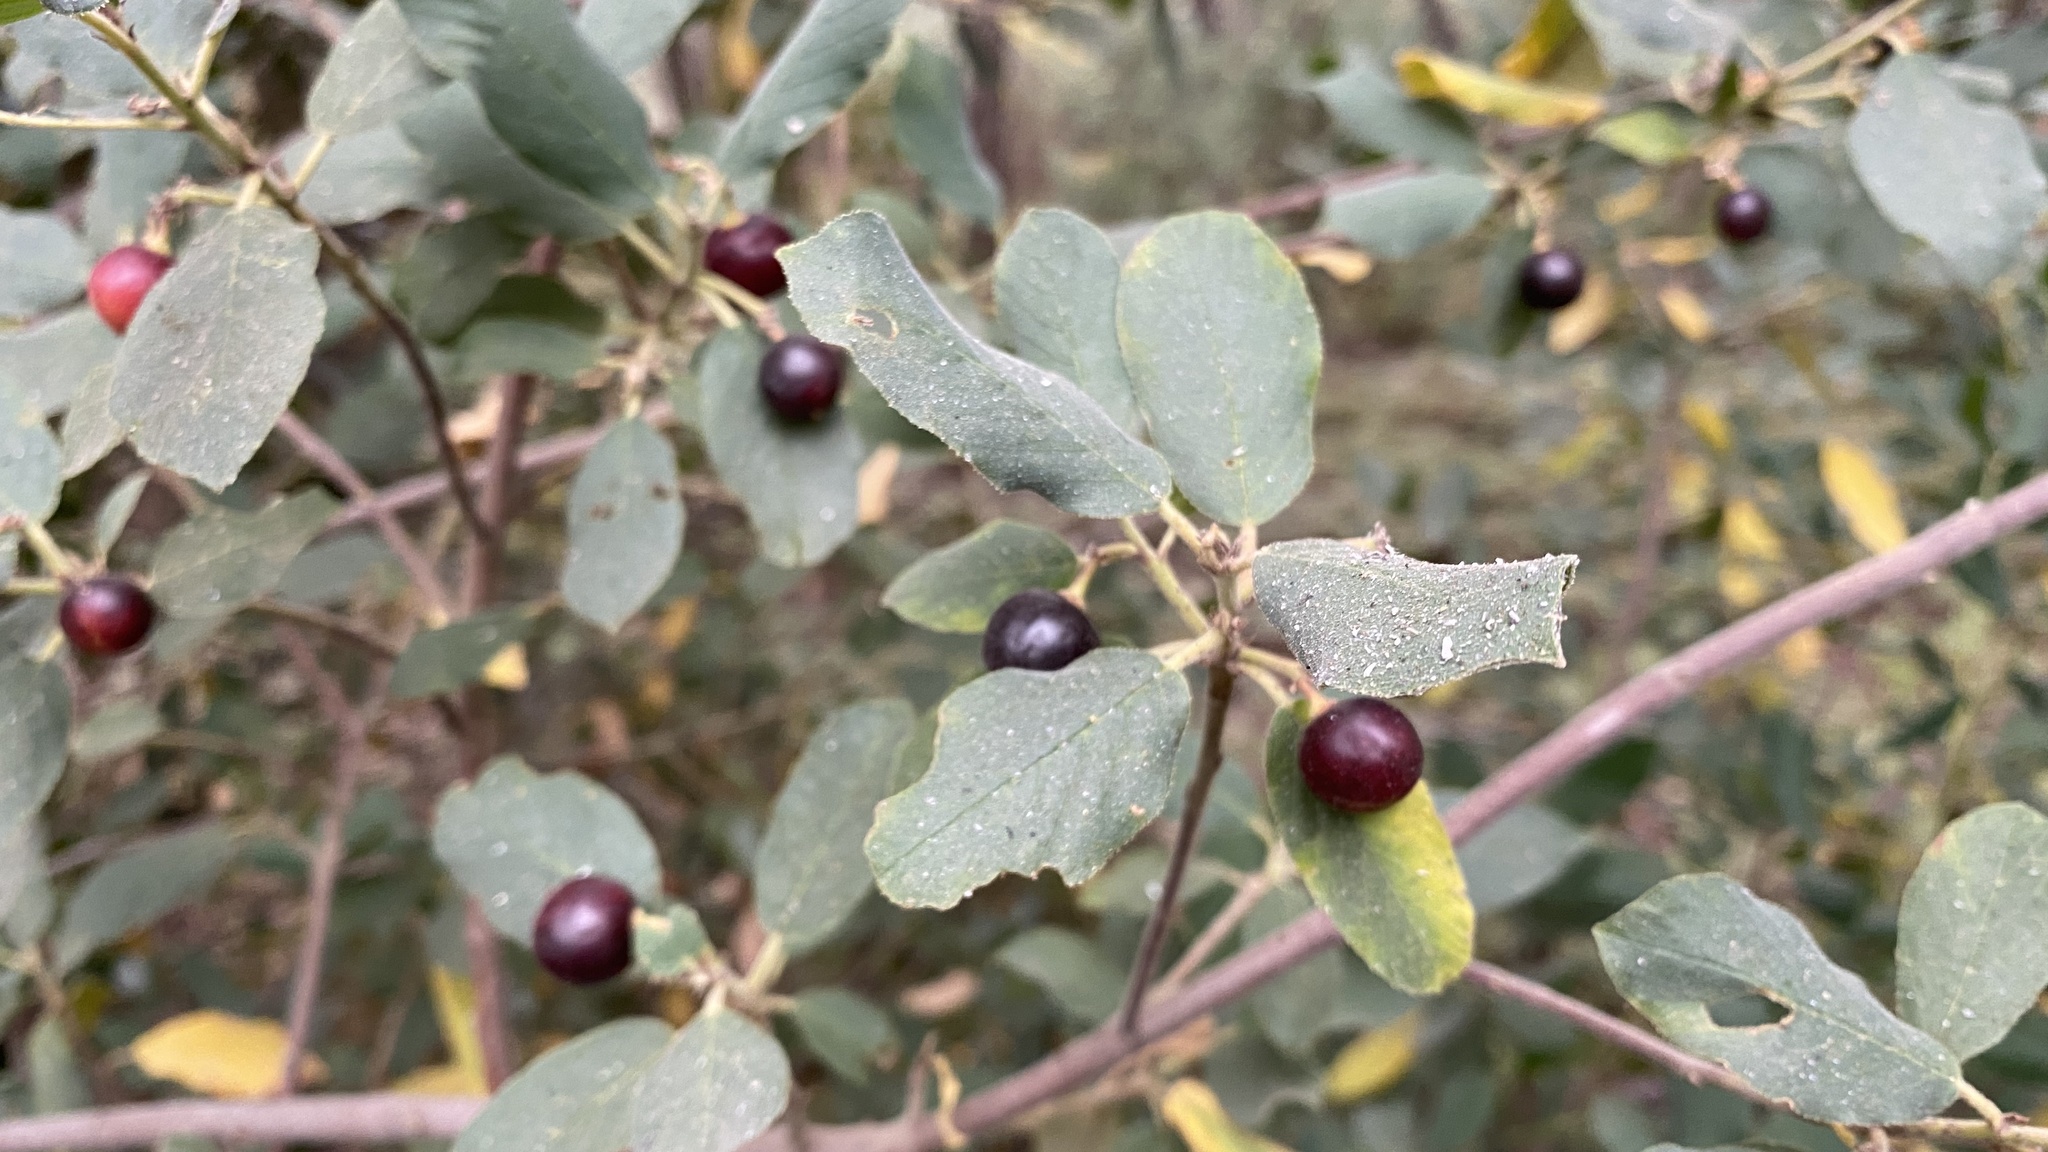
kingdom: Plantae
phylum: Tracheophyta
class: Magnoliopsida
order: Rosales
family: Rhamnaceae
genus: Frangula
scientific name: Frangula californica
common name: California buckthorn
